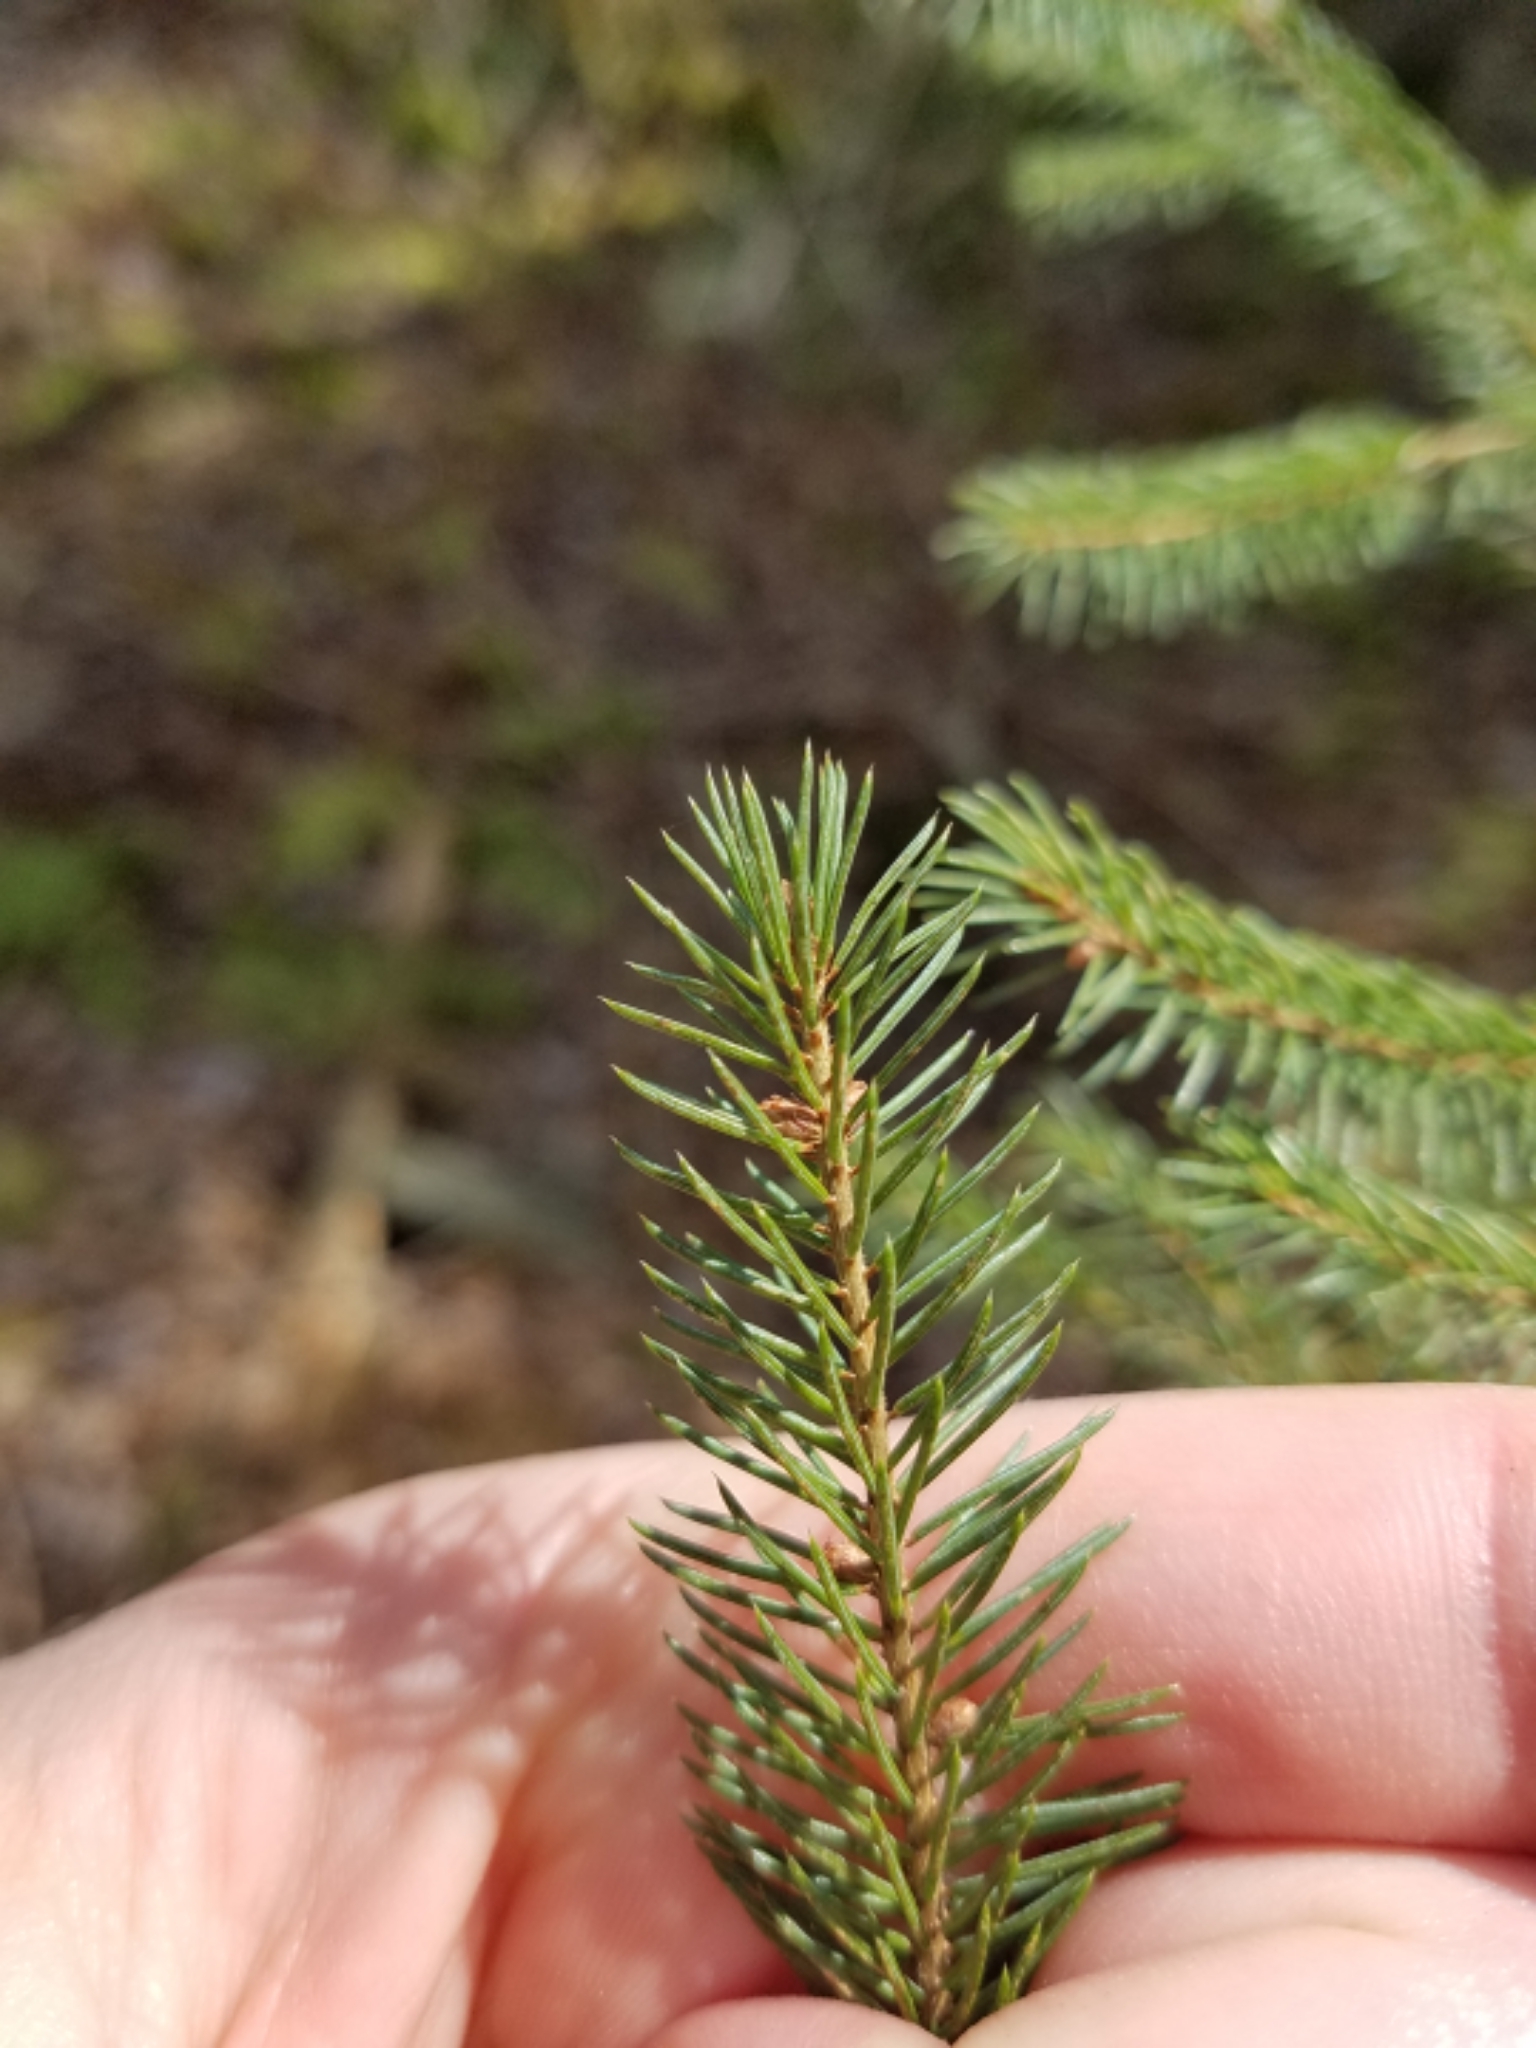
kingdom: Plantae
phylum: Tracheophyta
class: Pinopsida
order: Pinales
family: Pinaceae
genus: Picea
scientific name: Picea mariana
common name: Black spruce
